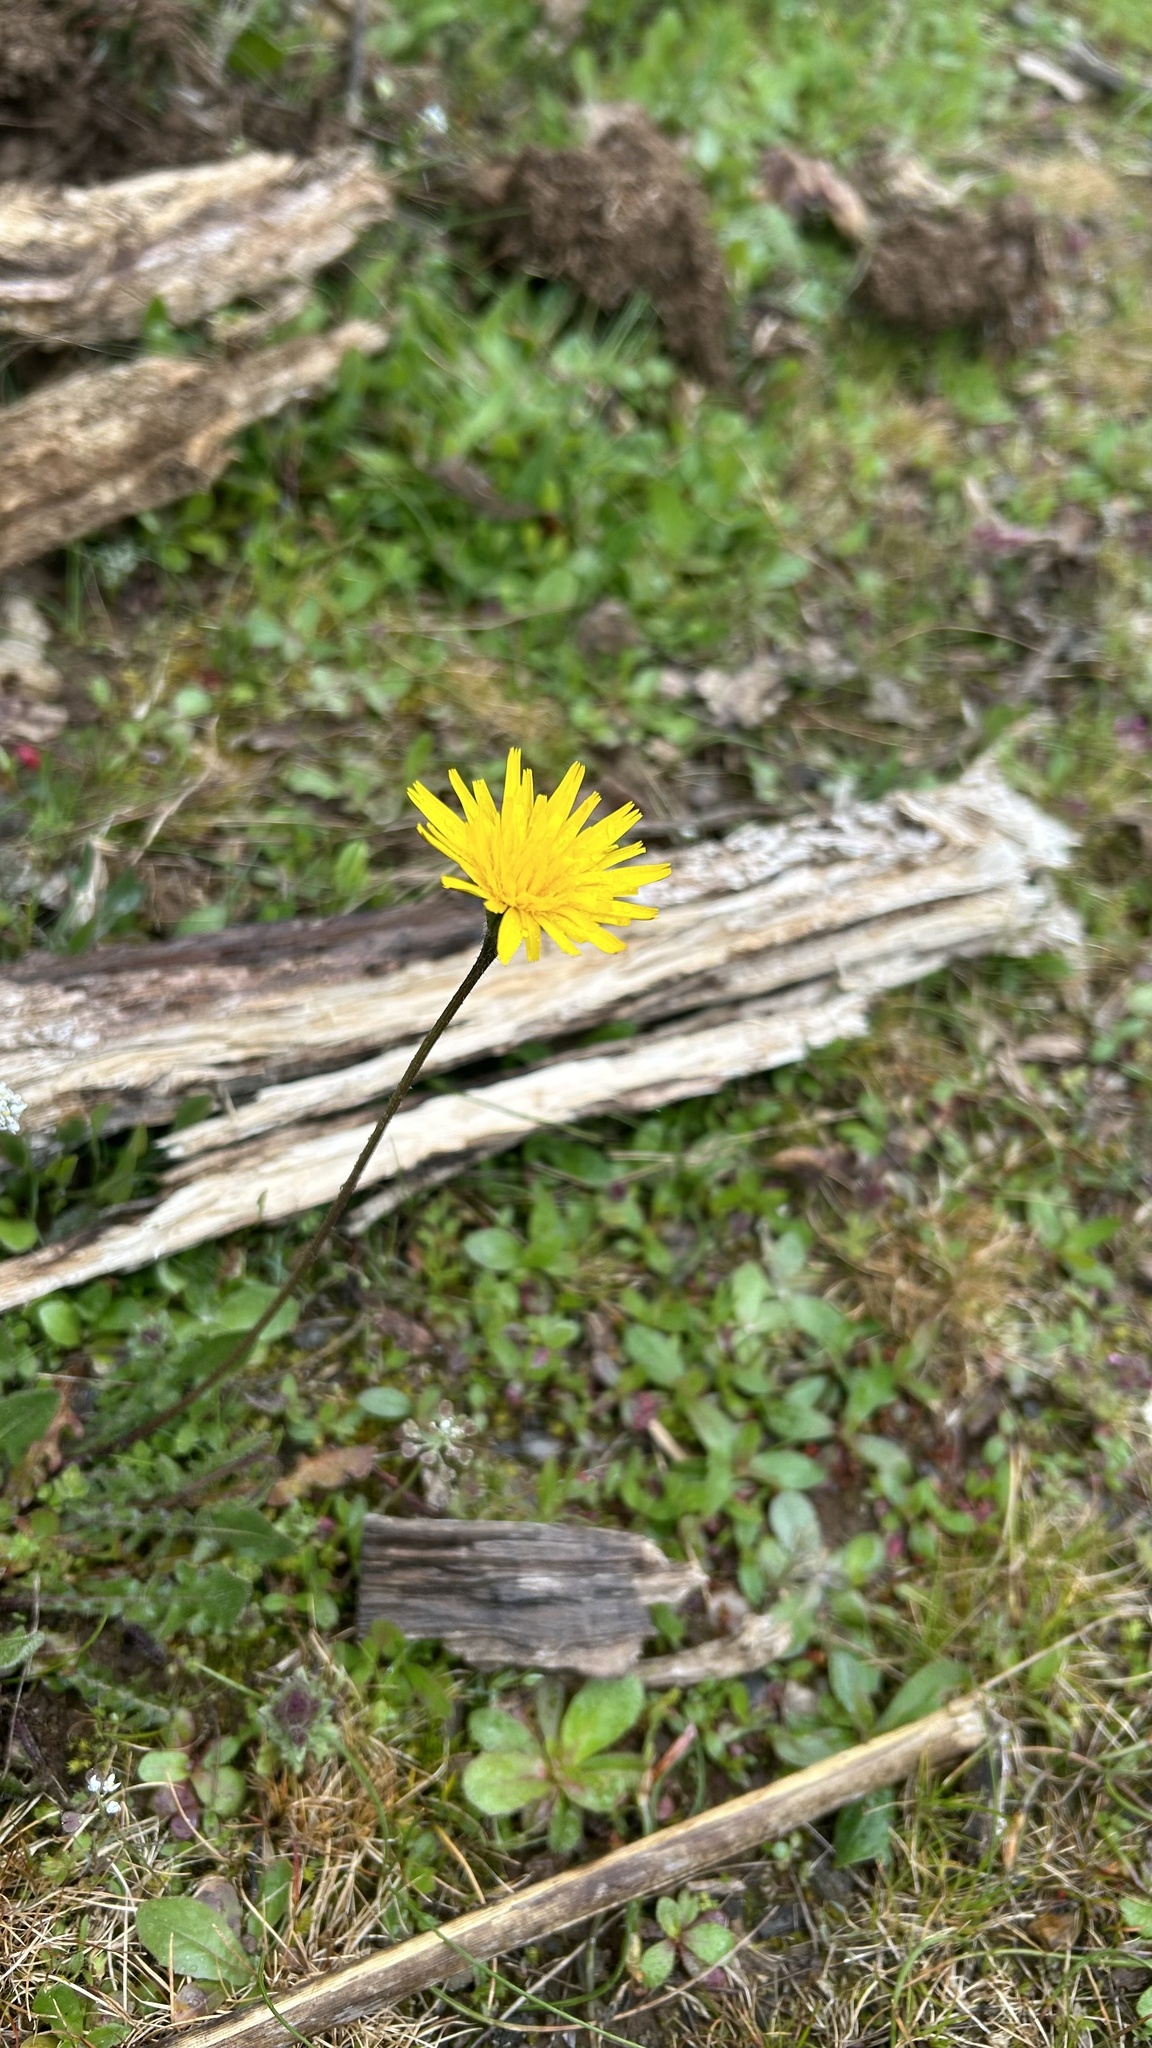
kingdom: Plantae
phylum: Tracheophyta
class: Magnoliopsida
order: Asterales
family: Asteraceae
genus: Leontodon
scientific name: Leontodon tuberosus
